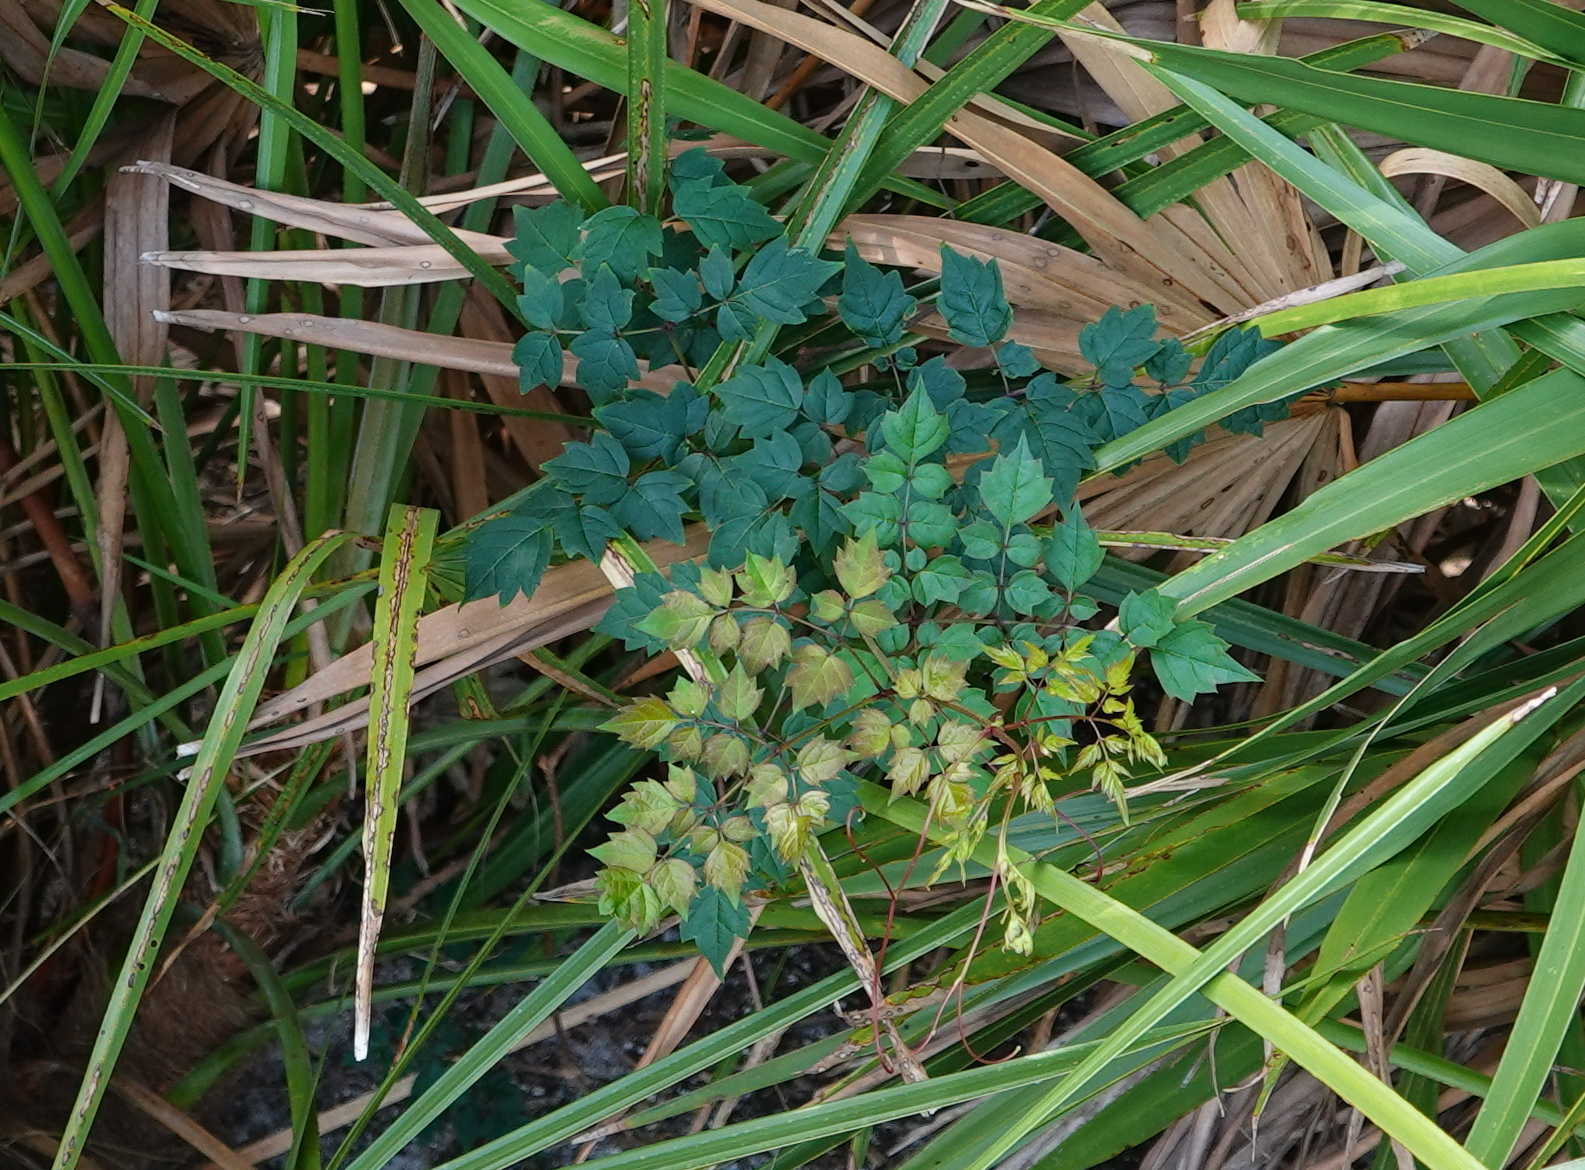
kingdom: Plantae
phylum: Tracheophyta
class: Magnoliopsida
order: Vitales
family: Vitaceae
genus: Nekemias
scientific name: Nekemias arborea
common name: Peppervine
